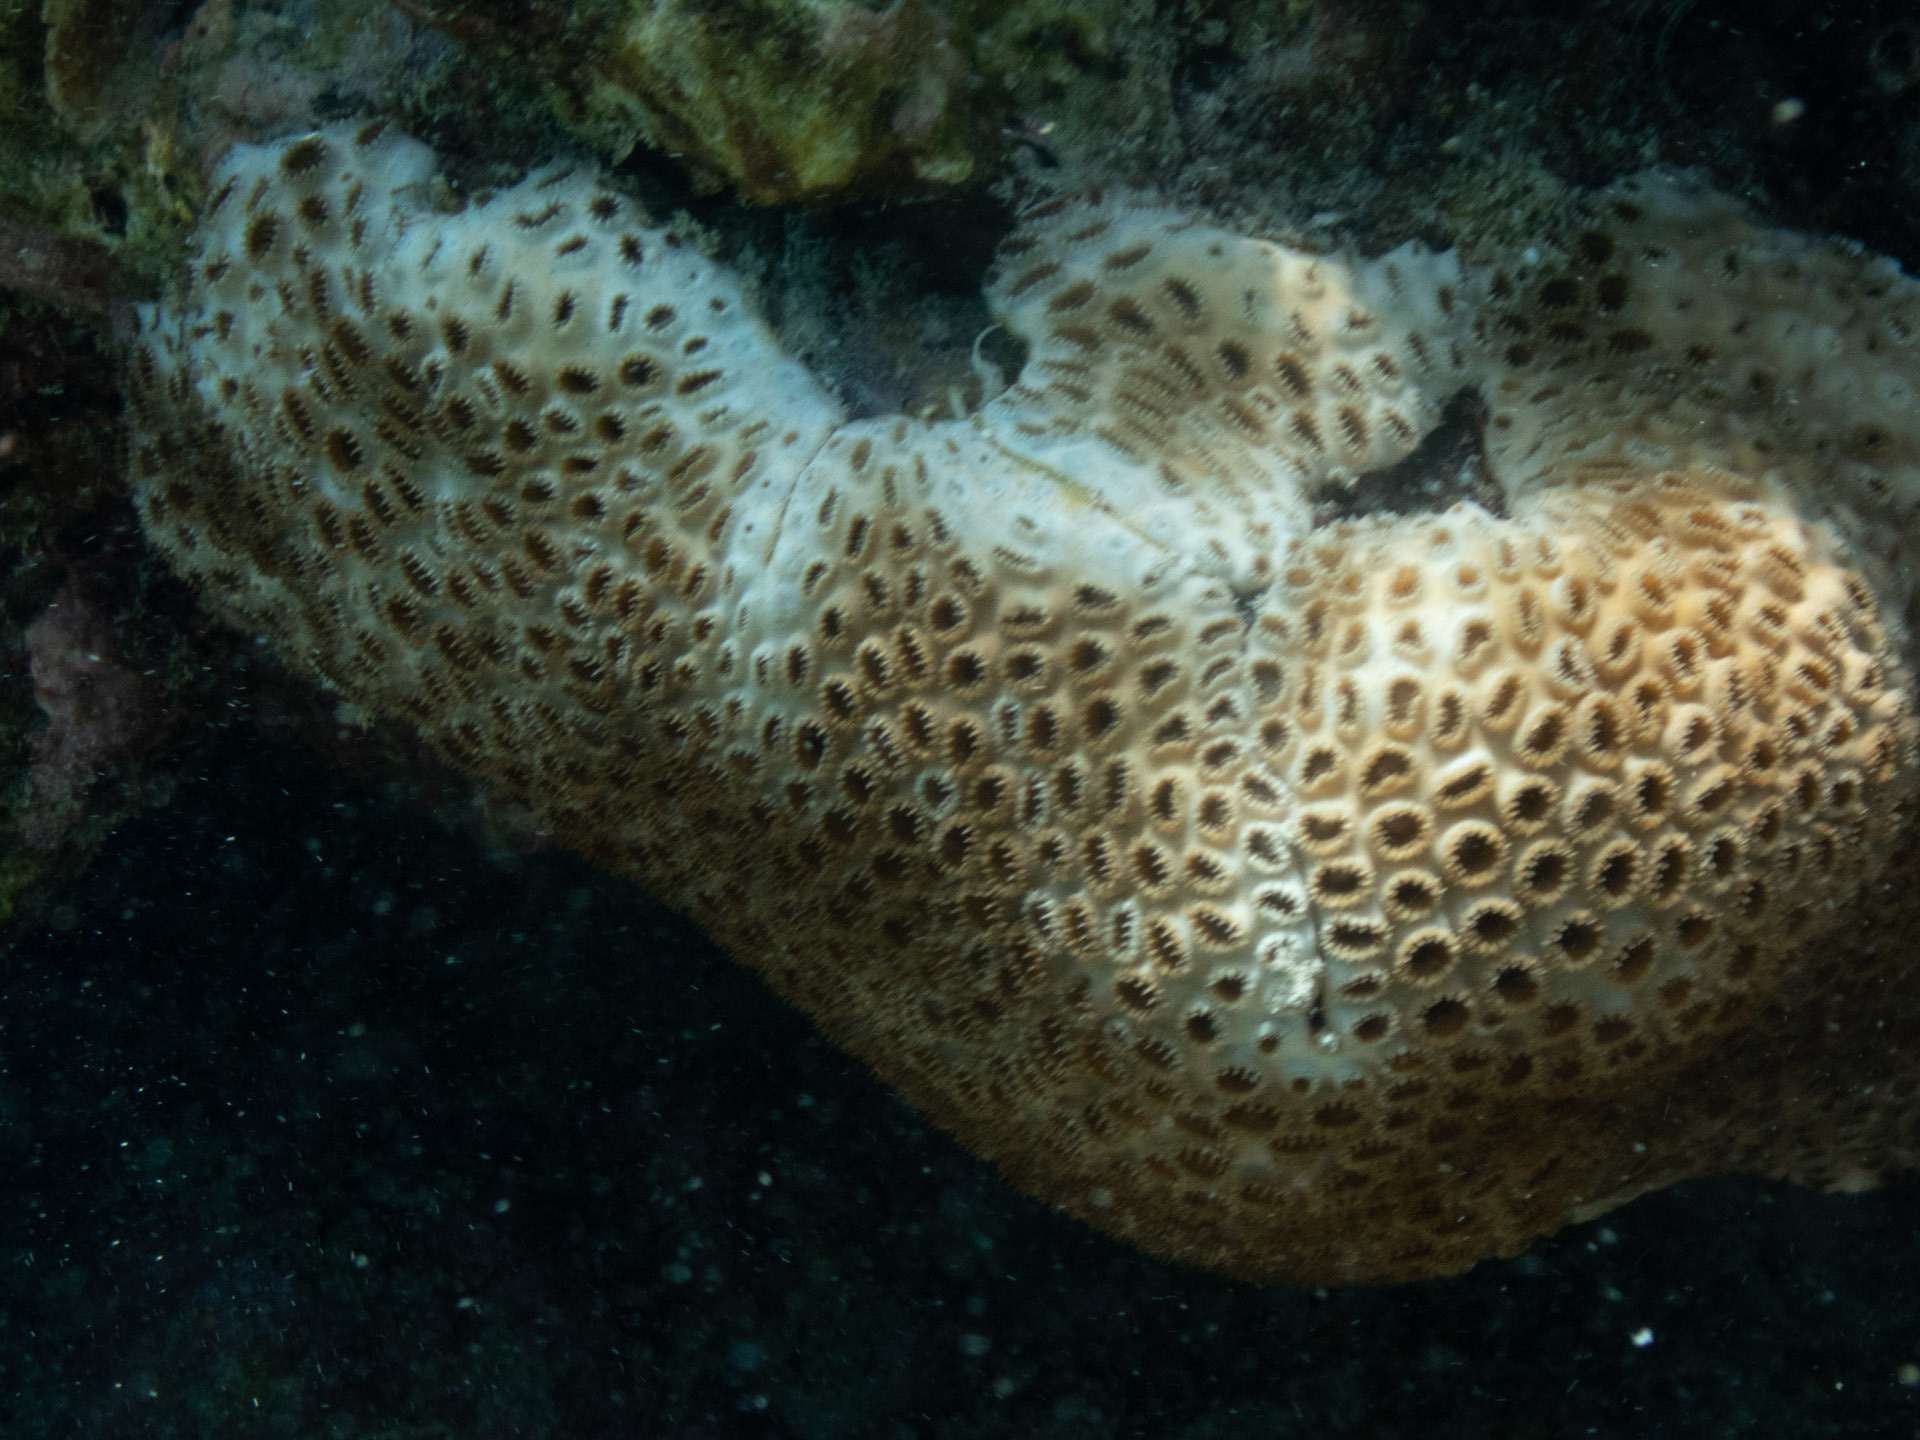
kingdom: Animalia
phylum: Cnidaria
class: Anthozoa
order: Zoantharia
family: Sphenopidae
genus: Palythoa
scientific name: Palythoa tuberculosa
